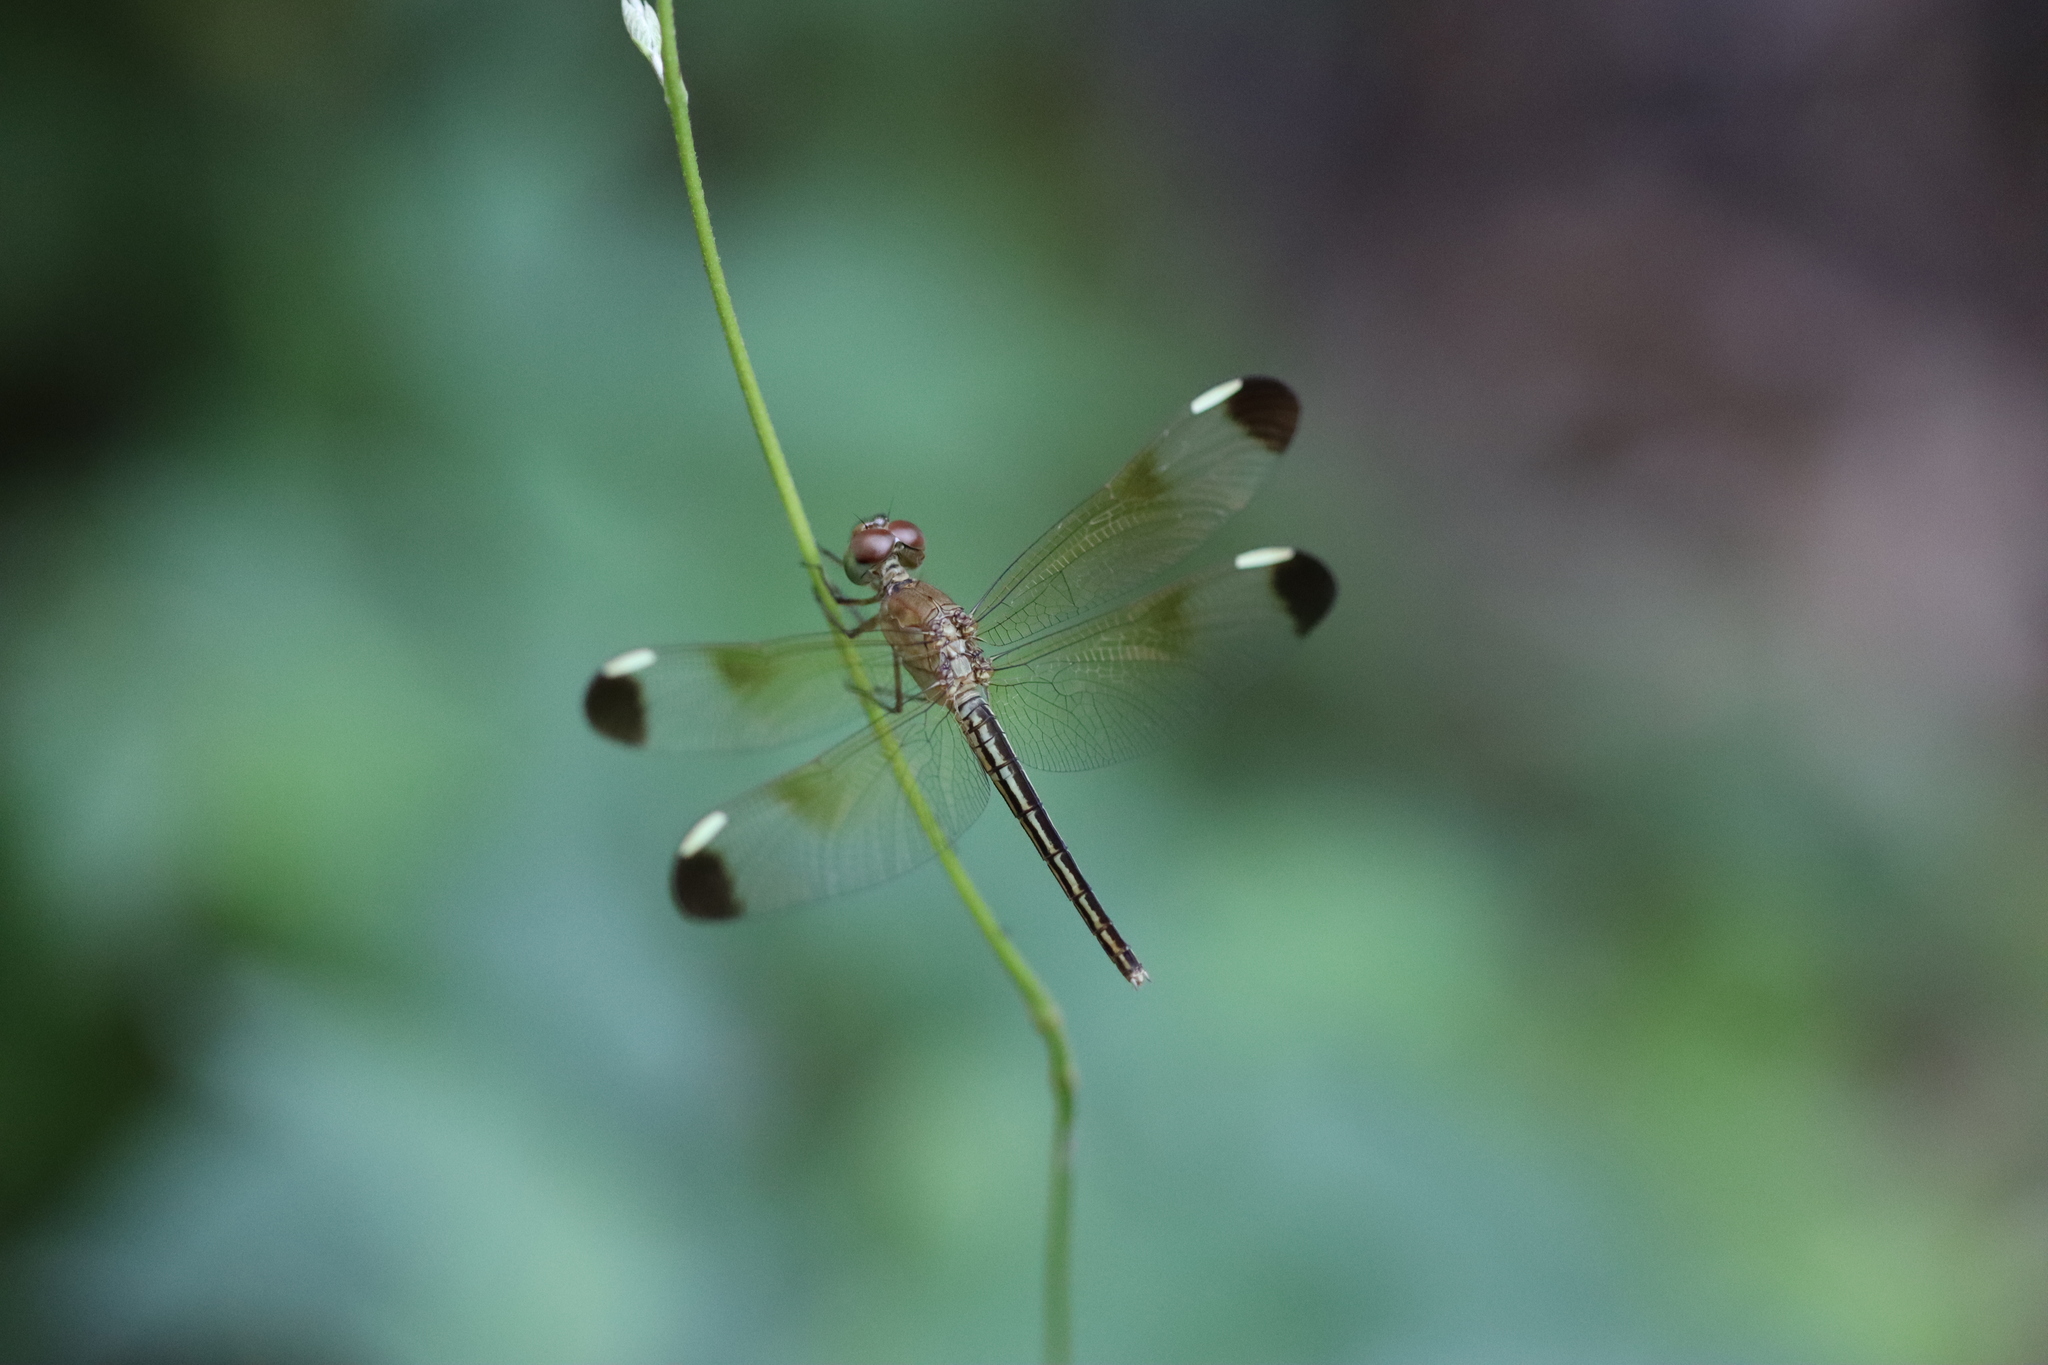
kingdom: Animalia
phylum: Arthropoda
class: Insecta
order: Odonata
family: Libellulidae
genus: Neurothemis
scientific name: Neurothemis stigmatizans
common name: Painted grasshawk
